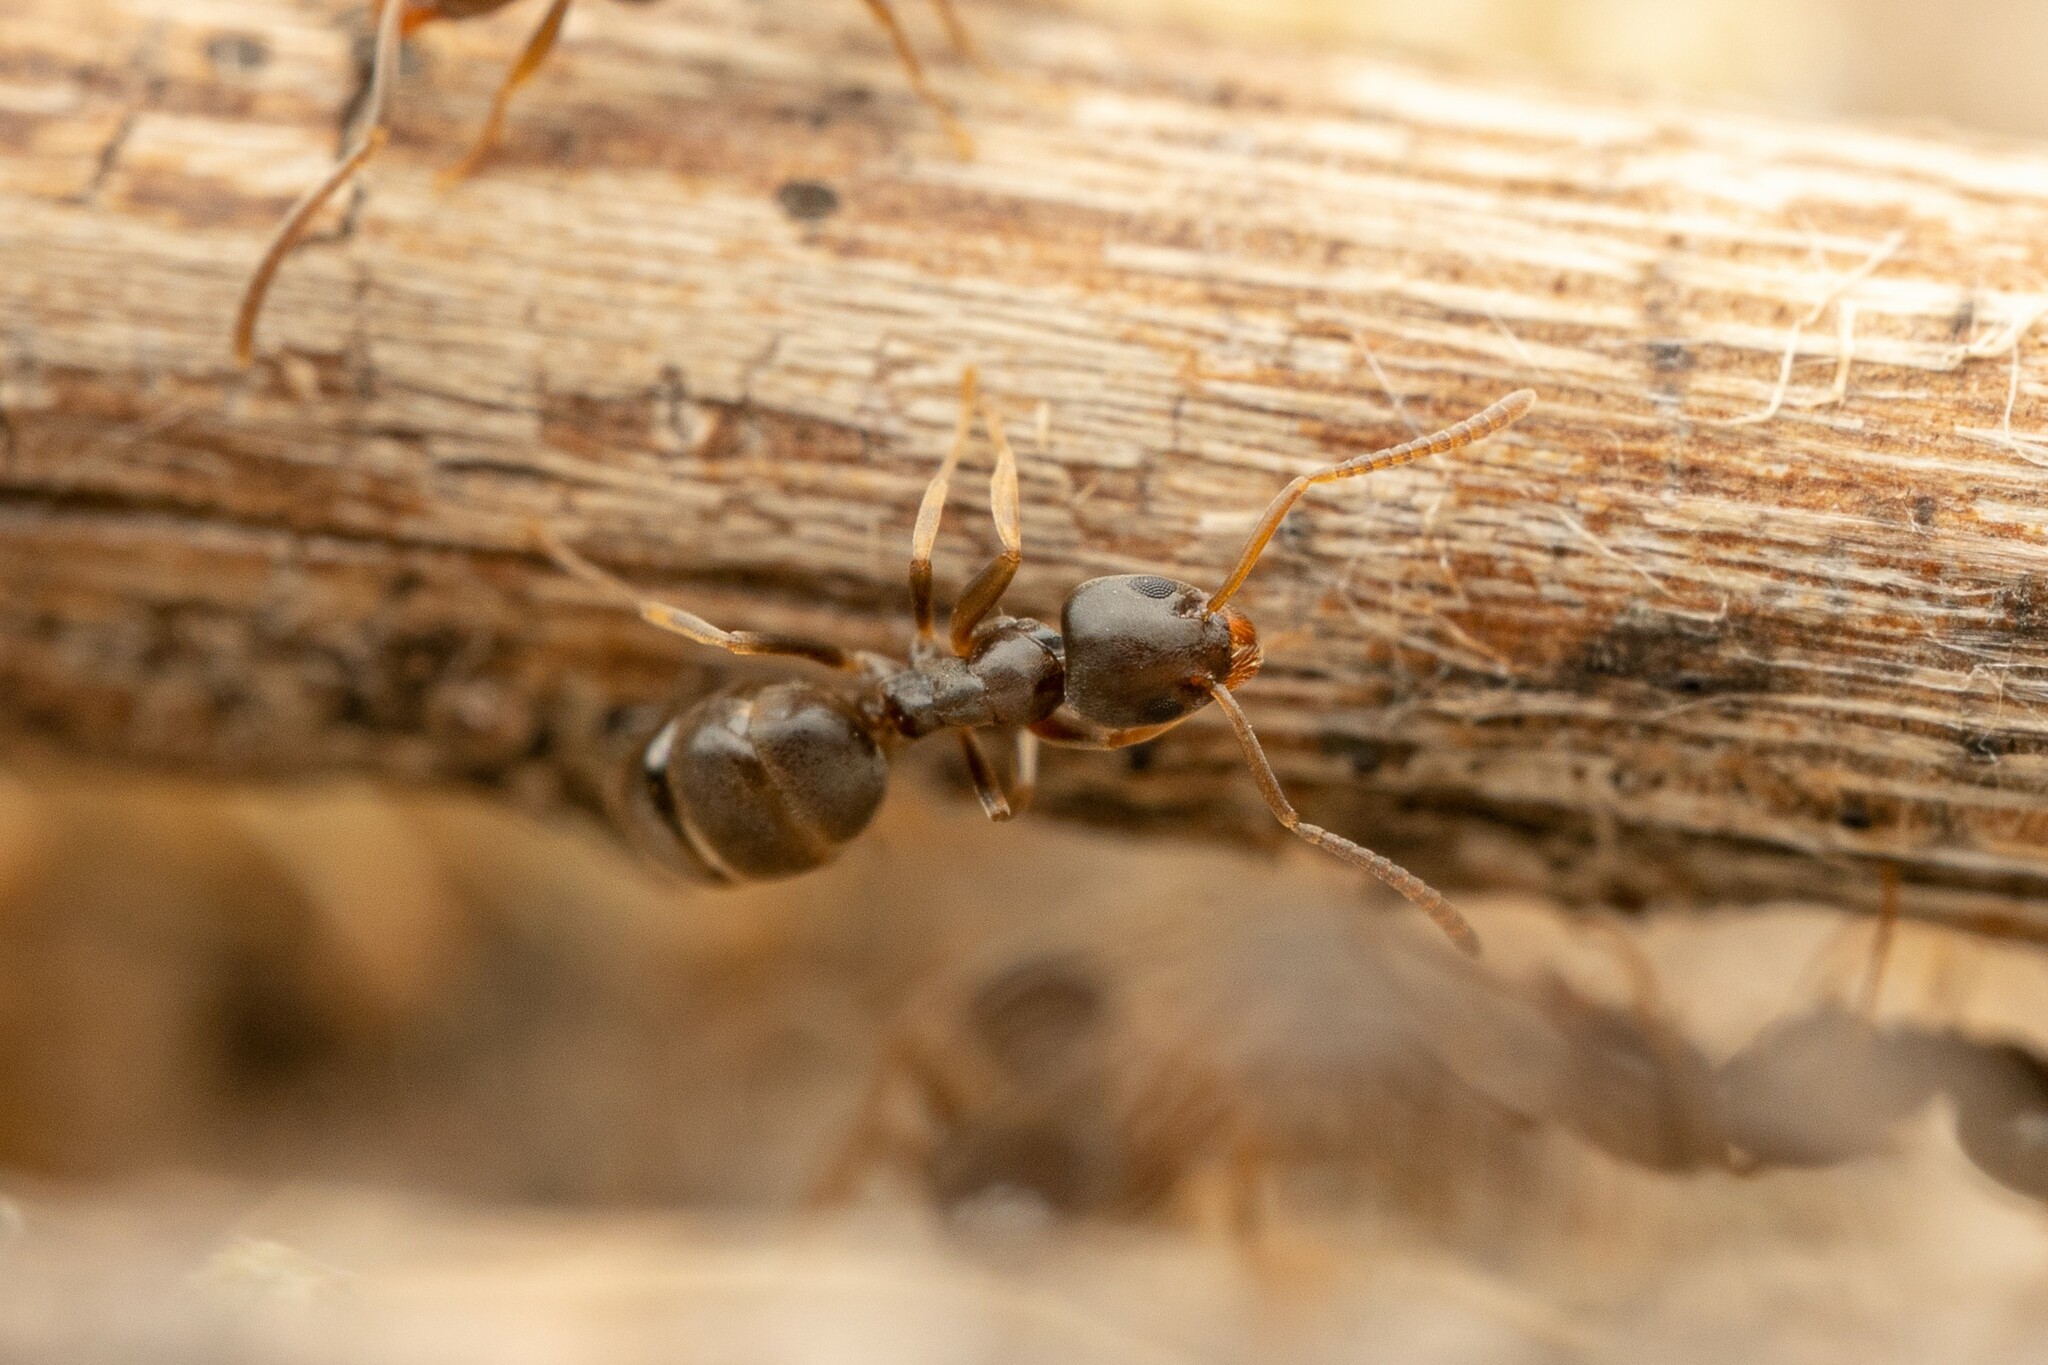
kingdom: Animalia
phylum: Arthropoda
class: Insecta
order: Hymenoptera
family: Formicidae
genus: Tapinoma
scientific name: Tapinoma sessile
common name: Odorous house ant
